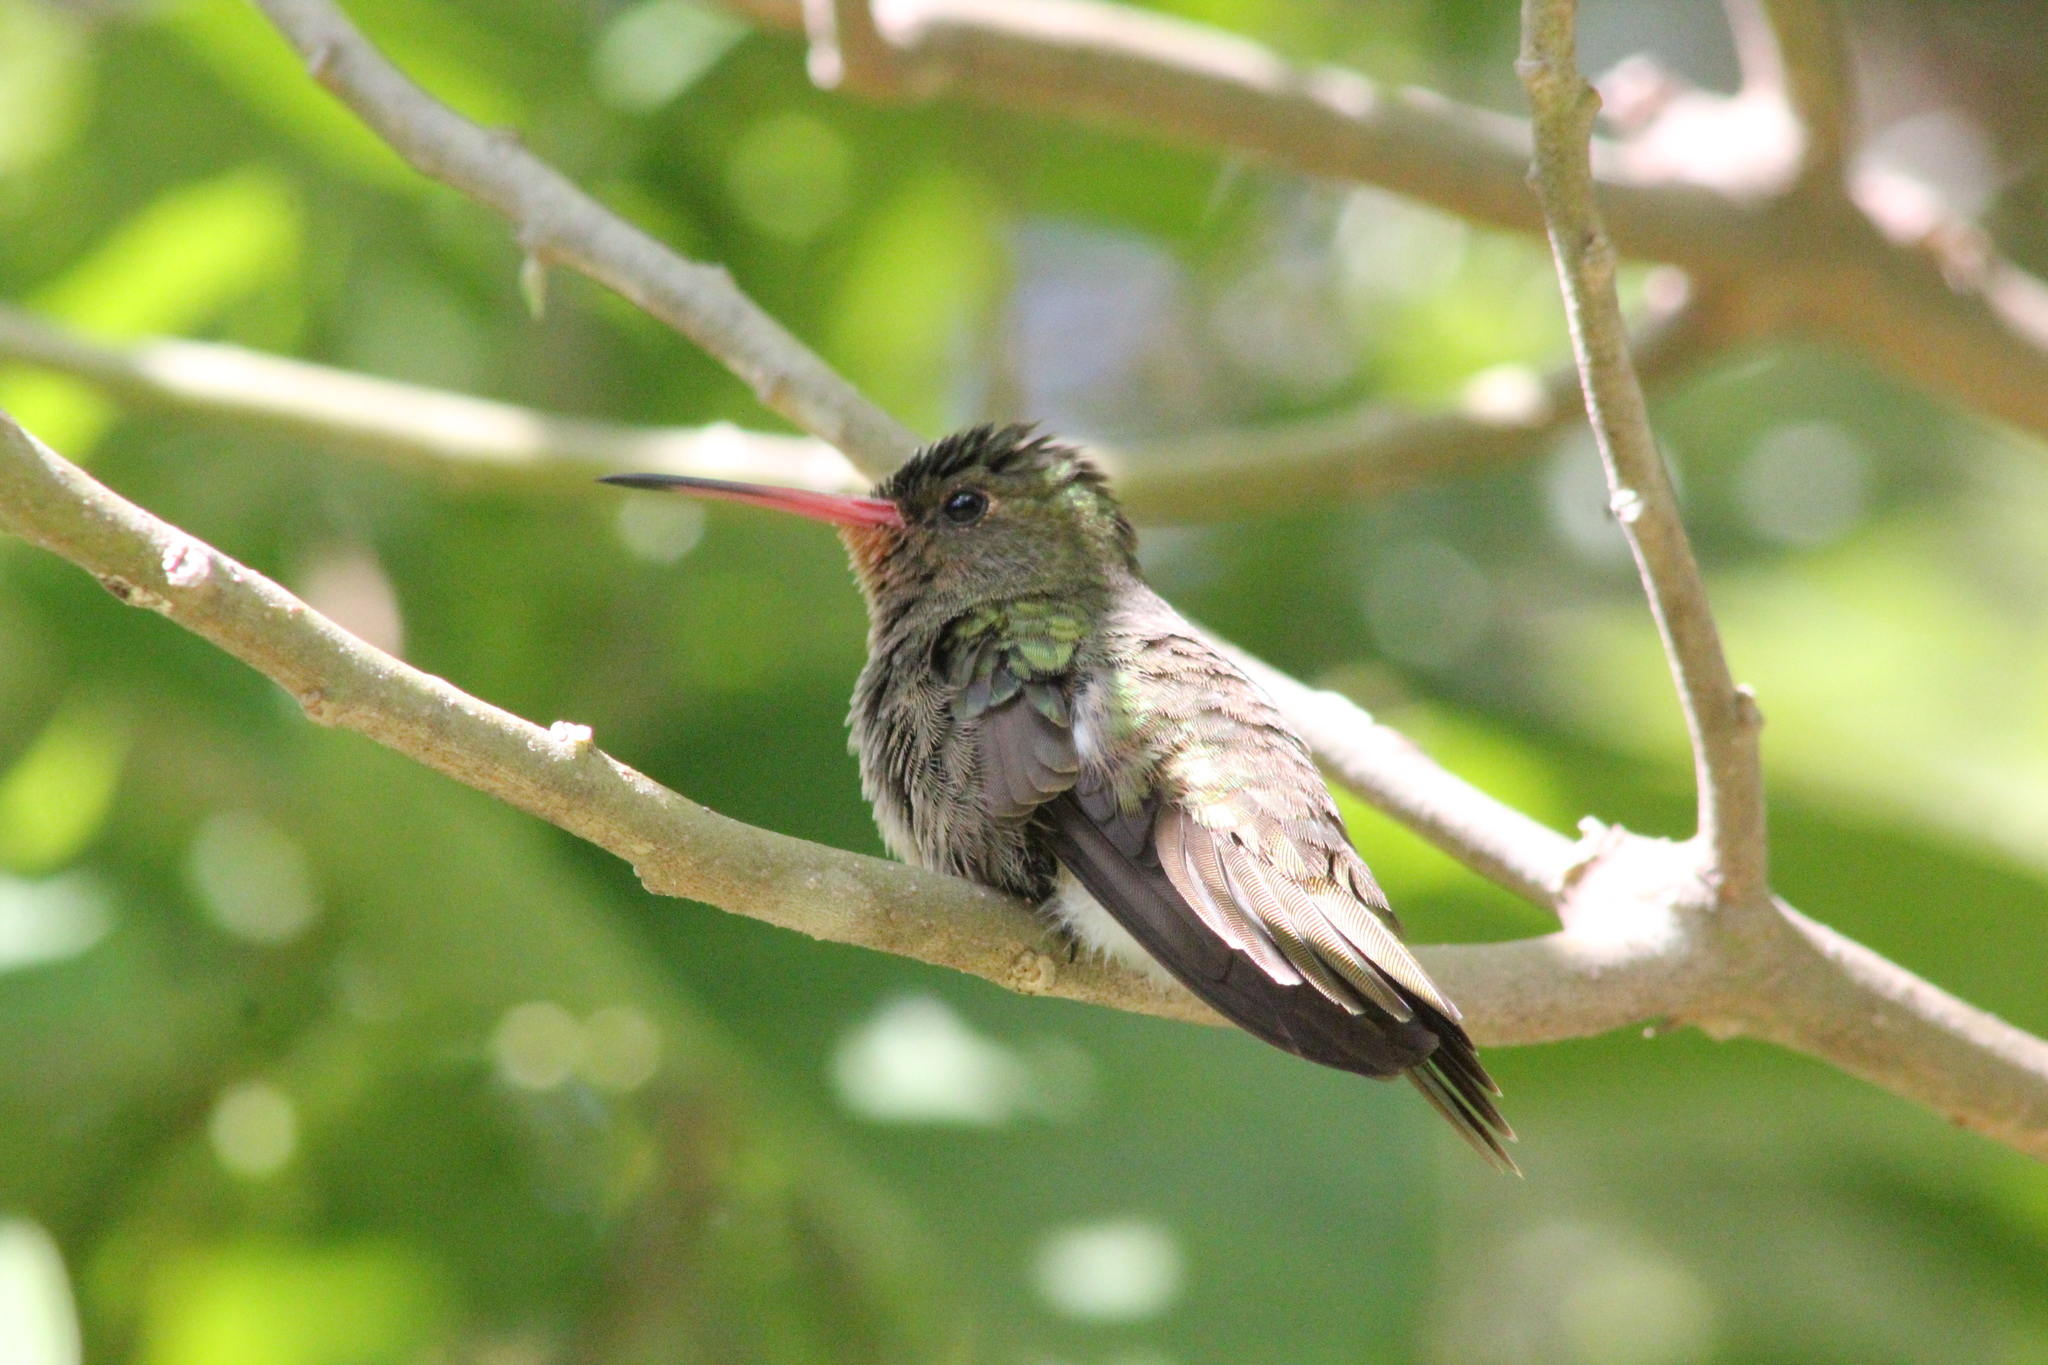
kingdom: Animalia
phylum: Chordata
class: Aves
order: Apodiformes
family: Trochilidae
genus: Hylocharis
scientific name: Hylocharis chrysura
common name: Gilded sapphire
